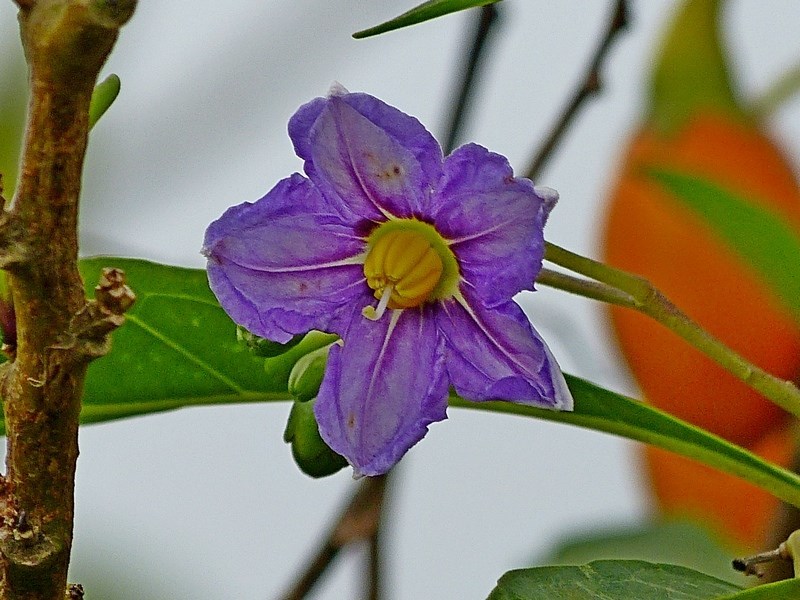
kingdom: Plantae
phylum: Tracheophyta
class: Magnoliopsida
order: Solanales
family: Solanaceae
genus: Solanum
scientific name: Solanum aviculare
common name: New zealand nightshade
